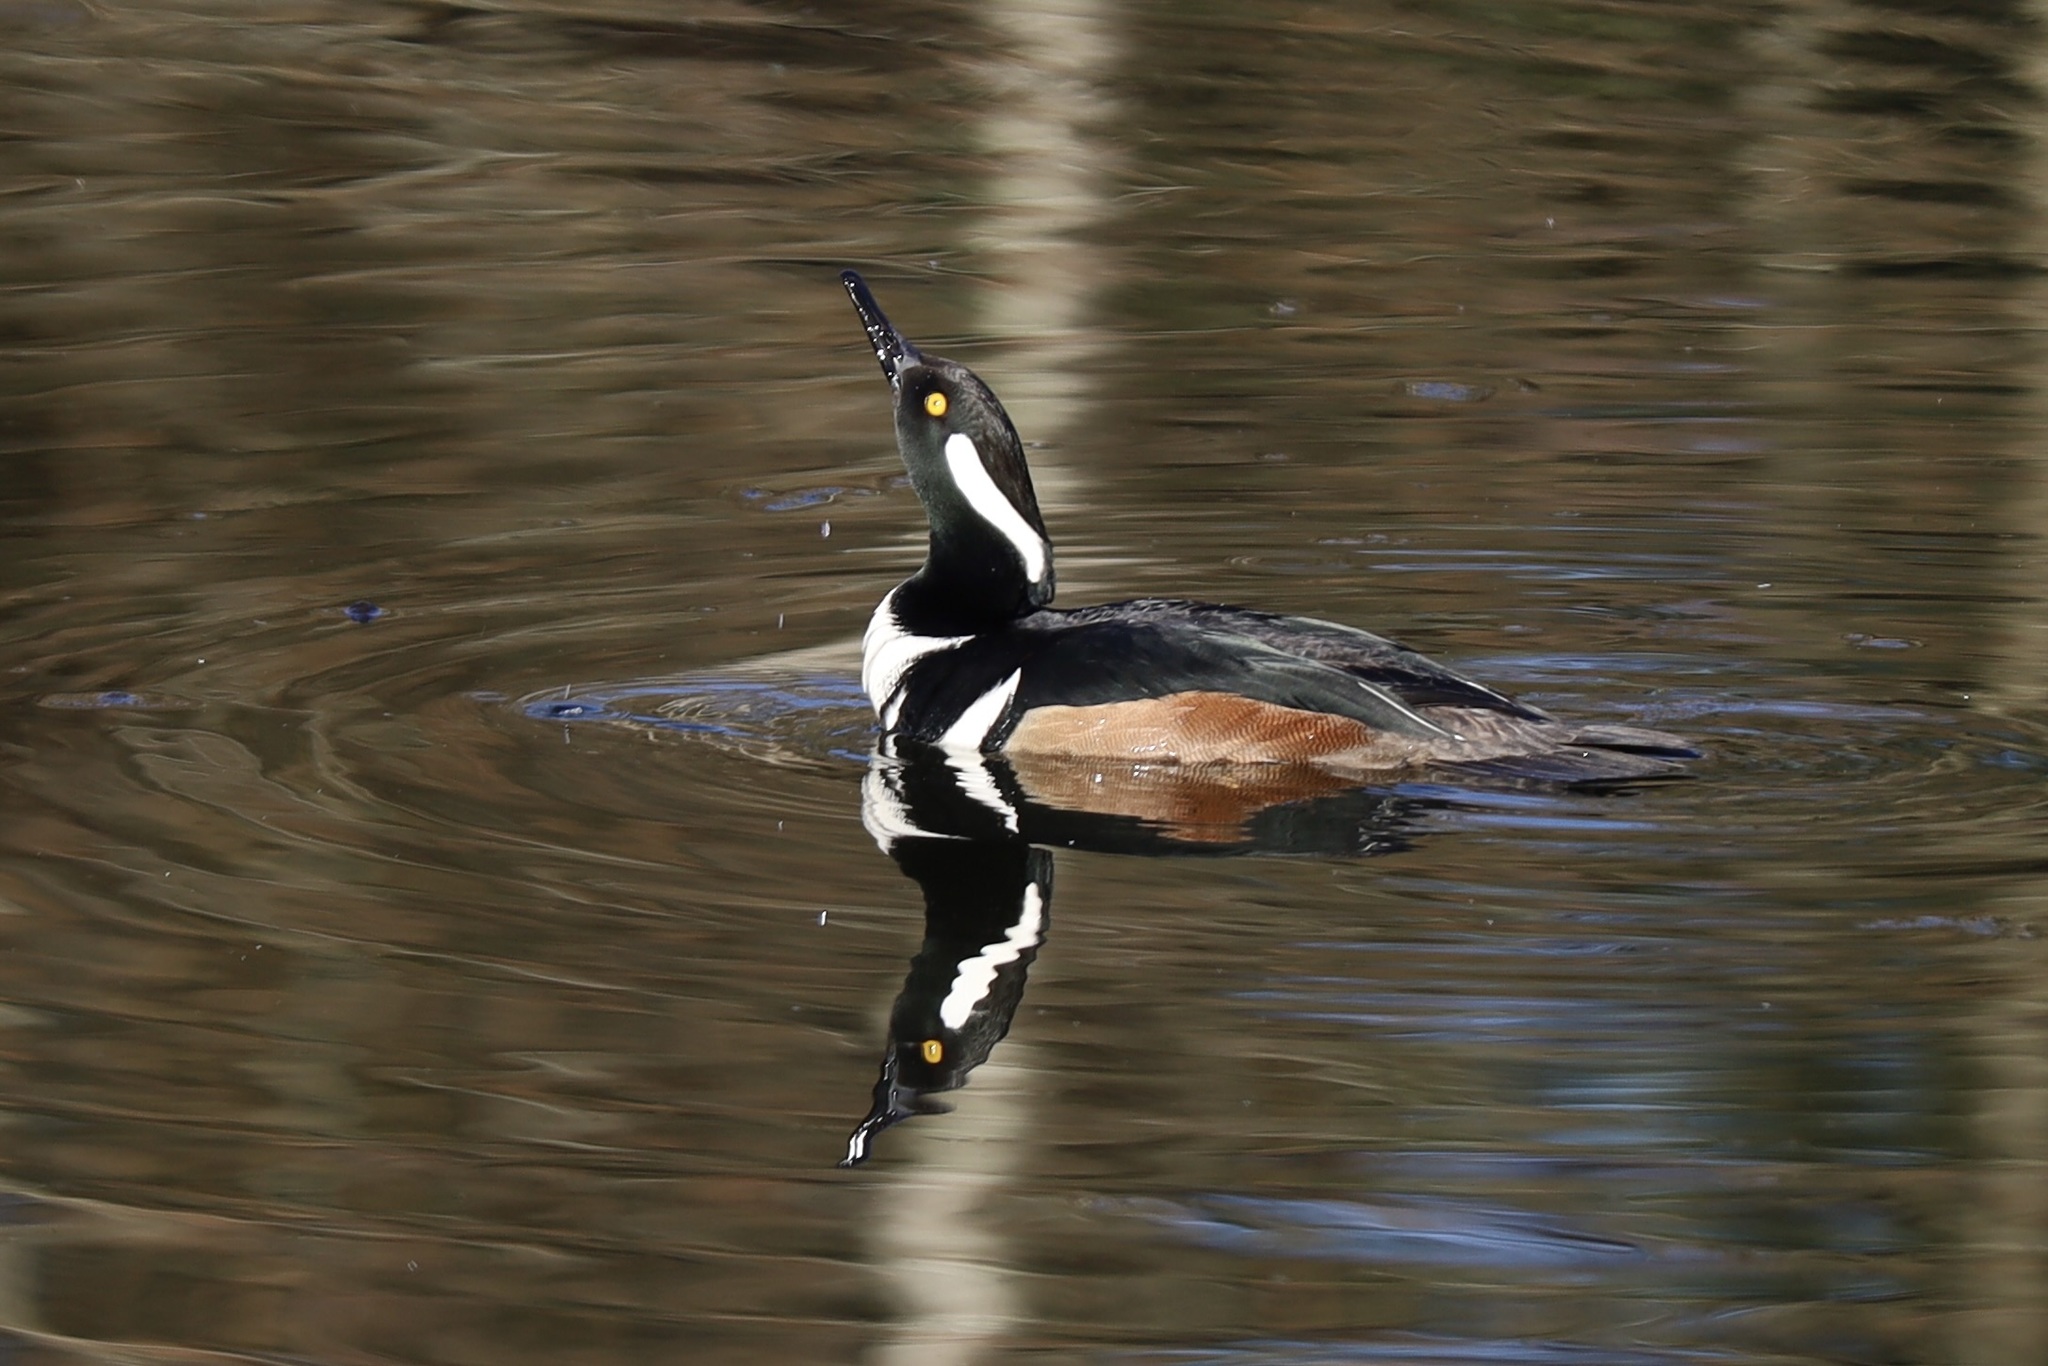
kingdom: Animalia
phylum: Chordata
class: Aves
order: Anseriformes
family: Anatidae
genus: Lophodytes
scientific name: Lophodytes cucullatus
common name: Hooded merganser
